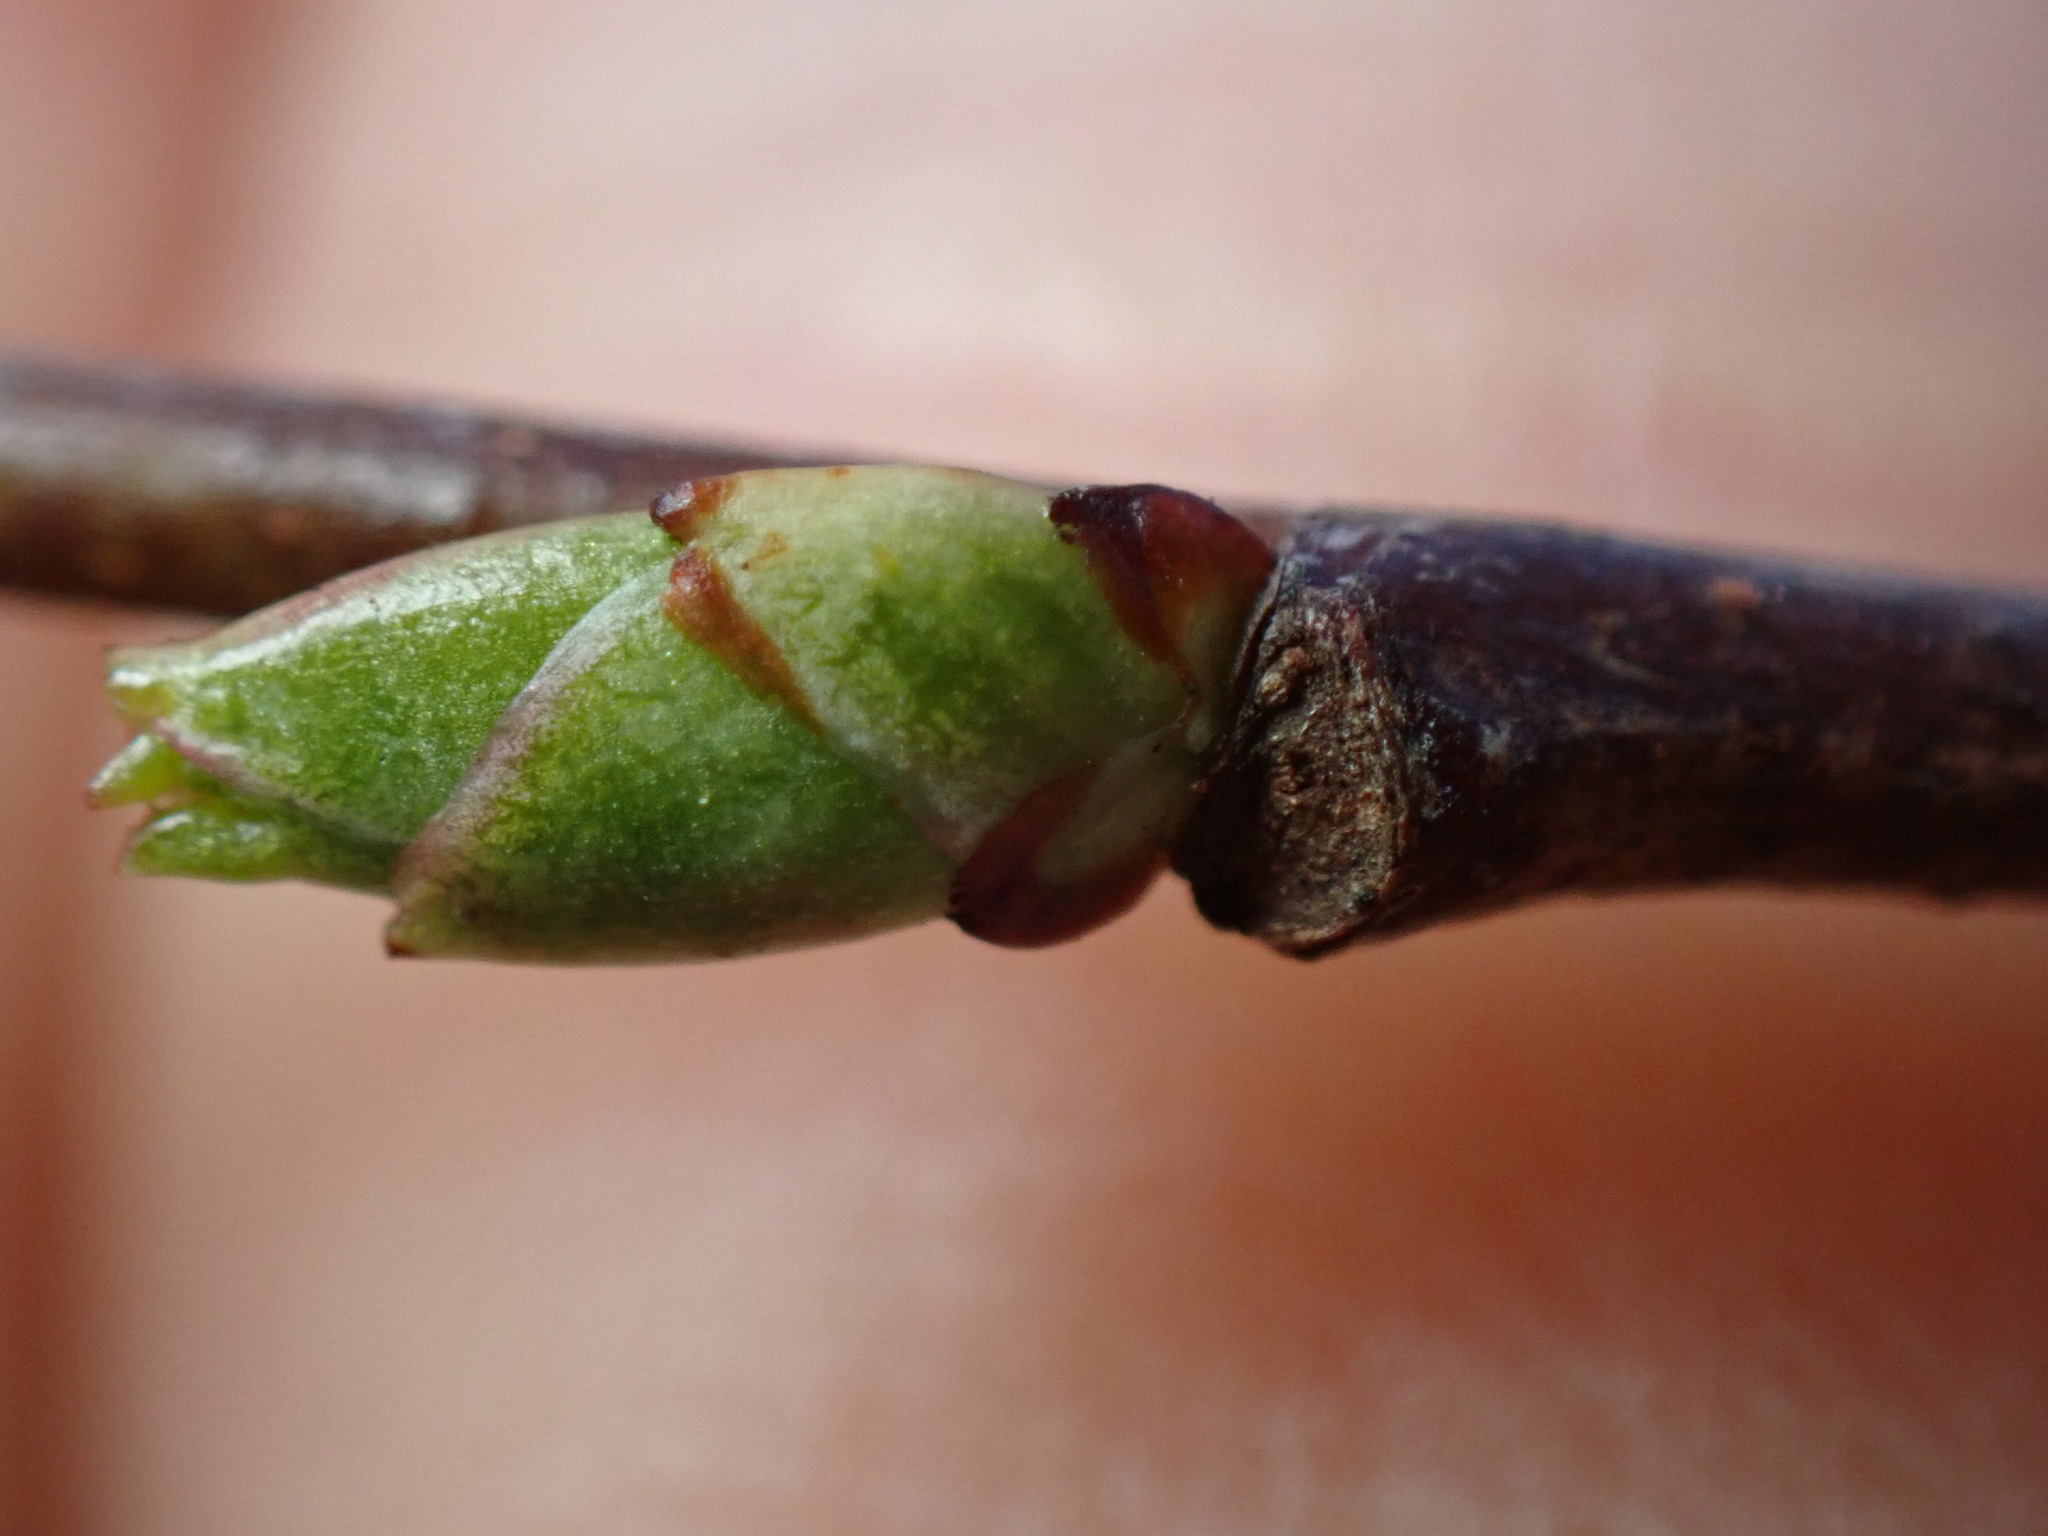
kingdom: Plantae
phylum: Tracheophyta
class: Magnoliopsida
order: Rosales
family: Rosaceae
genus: Prunus
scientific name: Prunus serotina
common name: Black cherry
